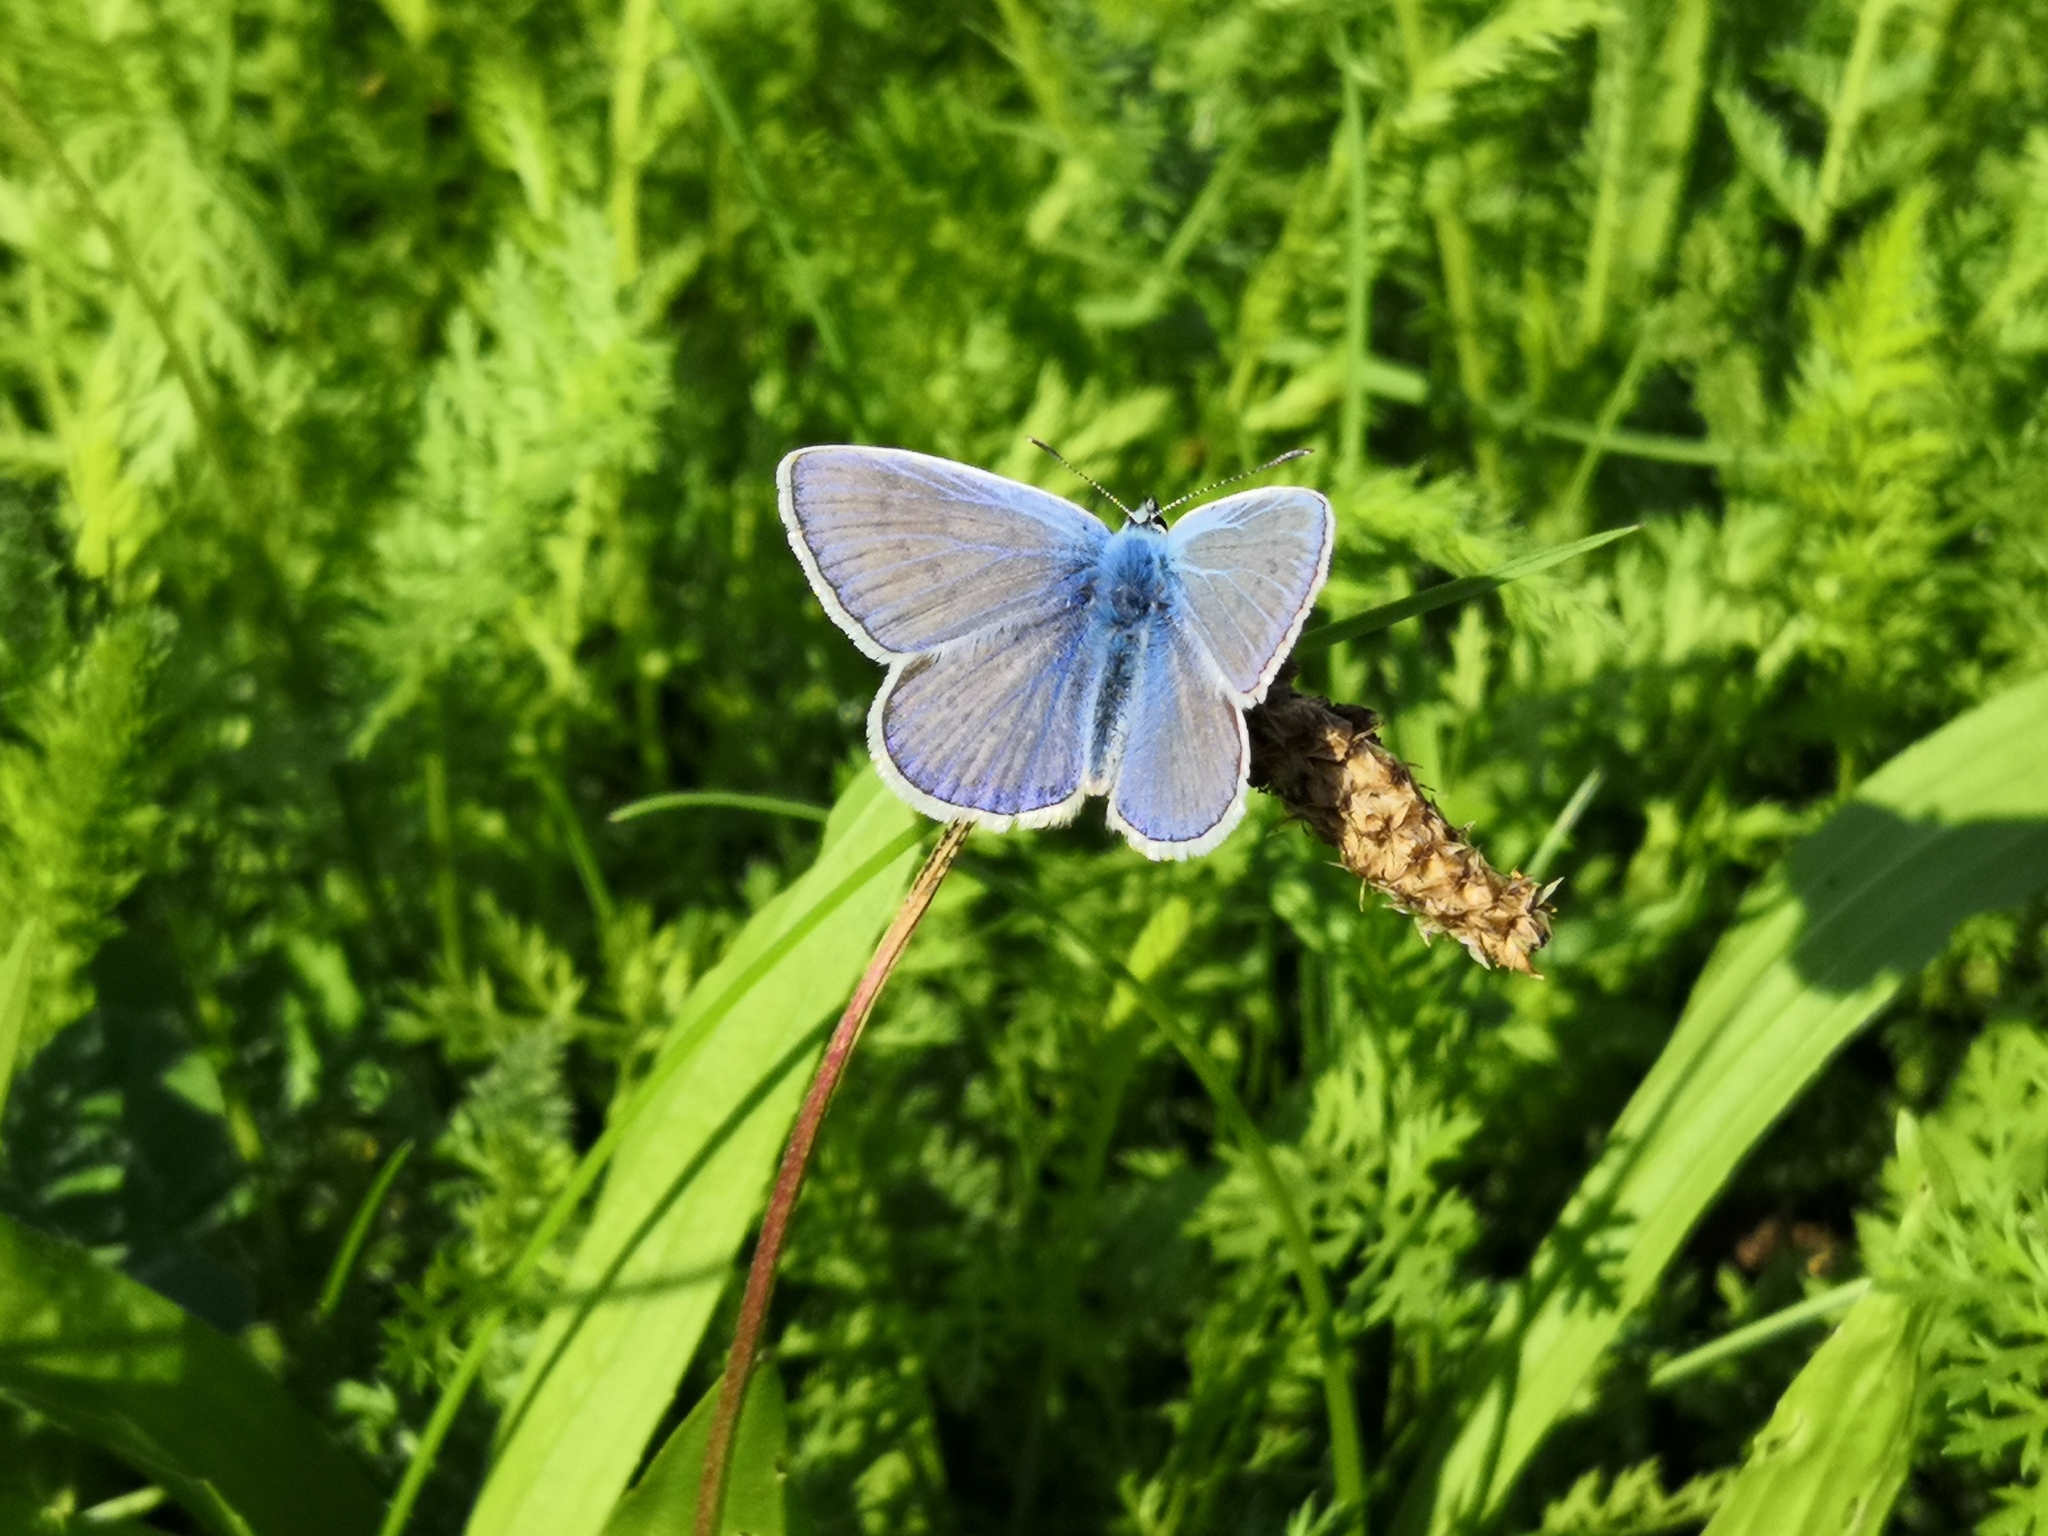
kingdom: Animalia
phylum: Arthropoda
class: Insecta
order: Lepidoptera
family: Lycaenidae
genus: Polyommatus
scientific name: Polyommatus icarus
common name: Common blue
